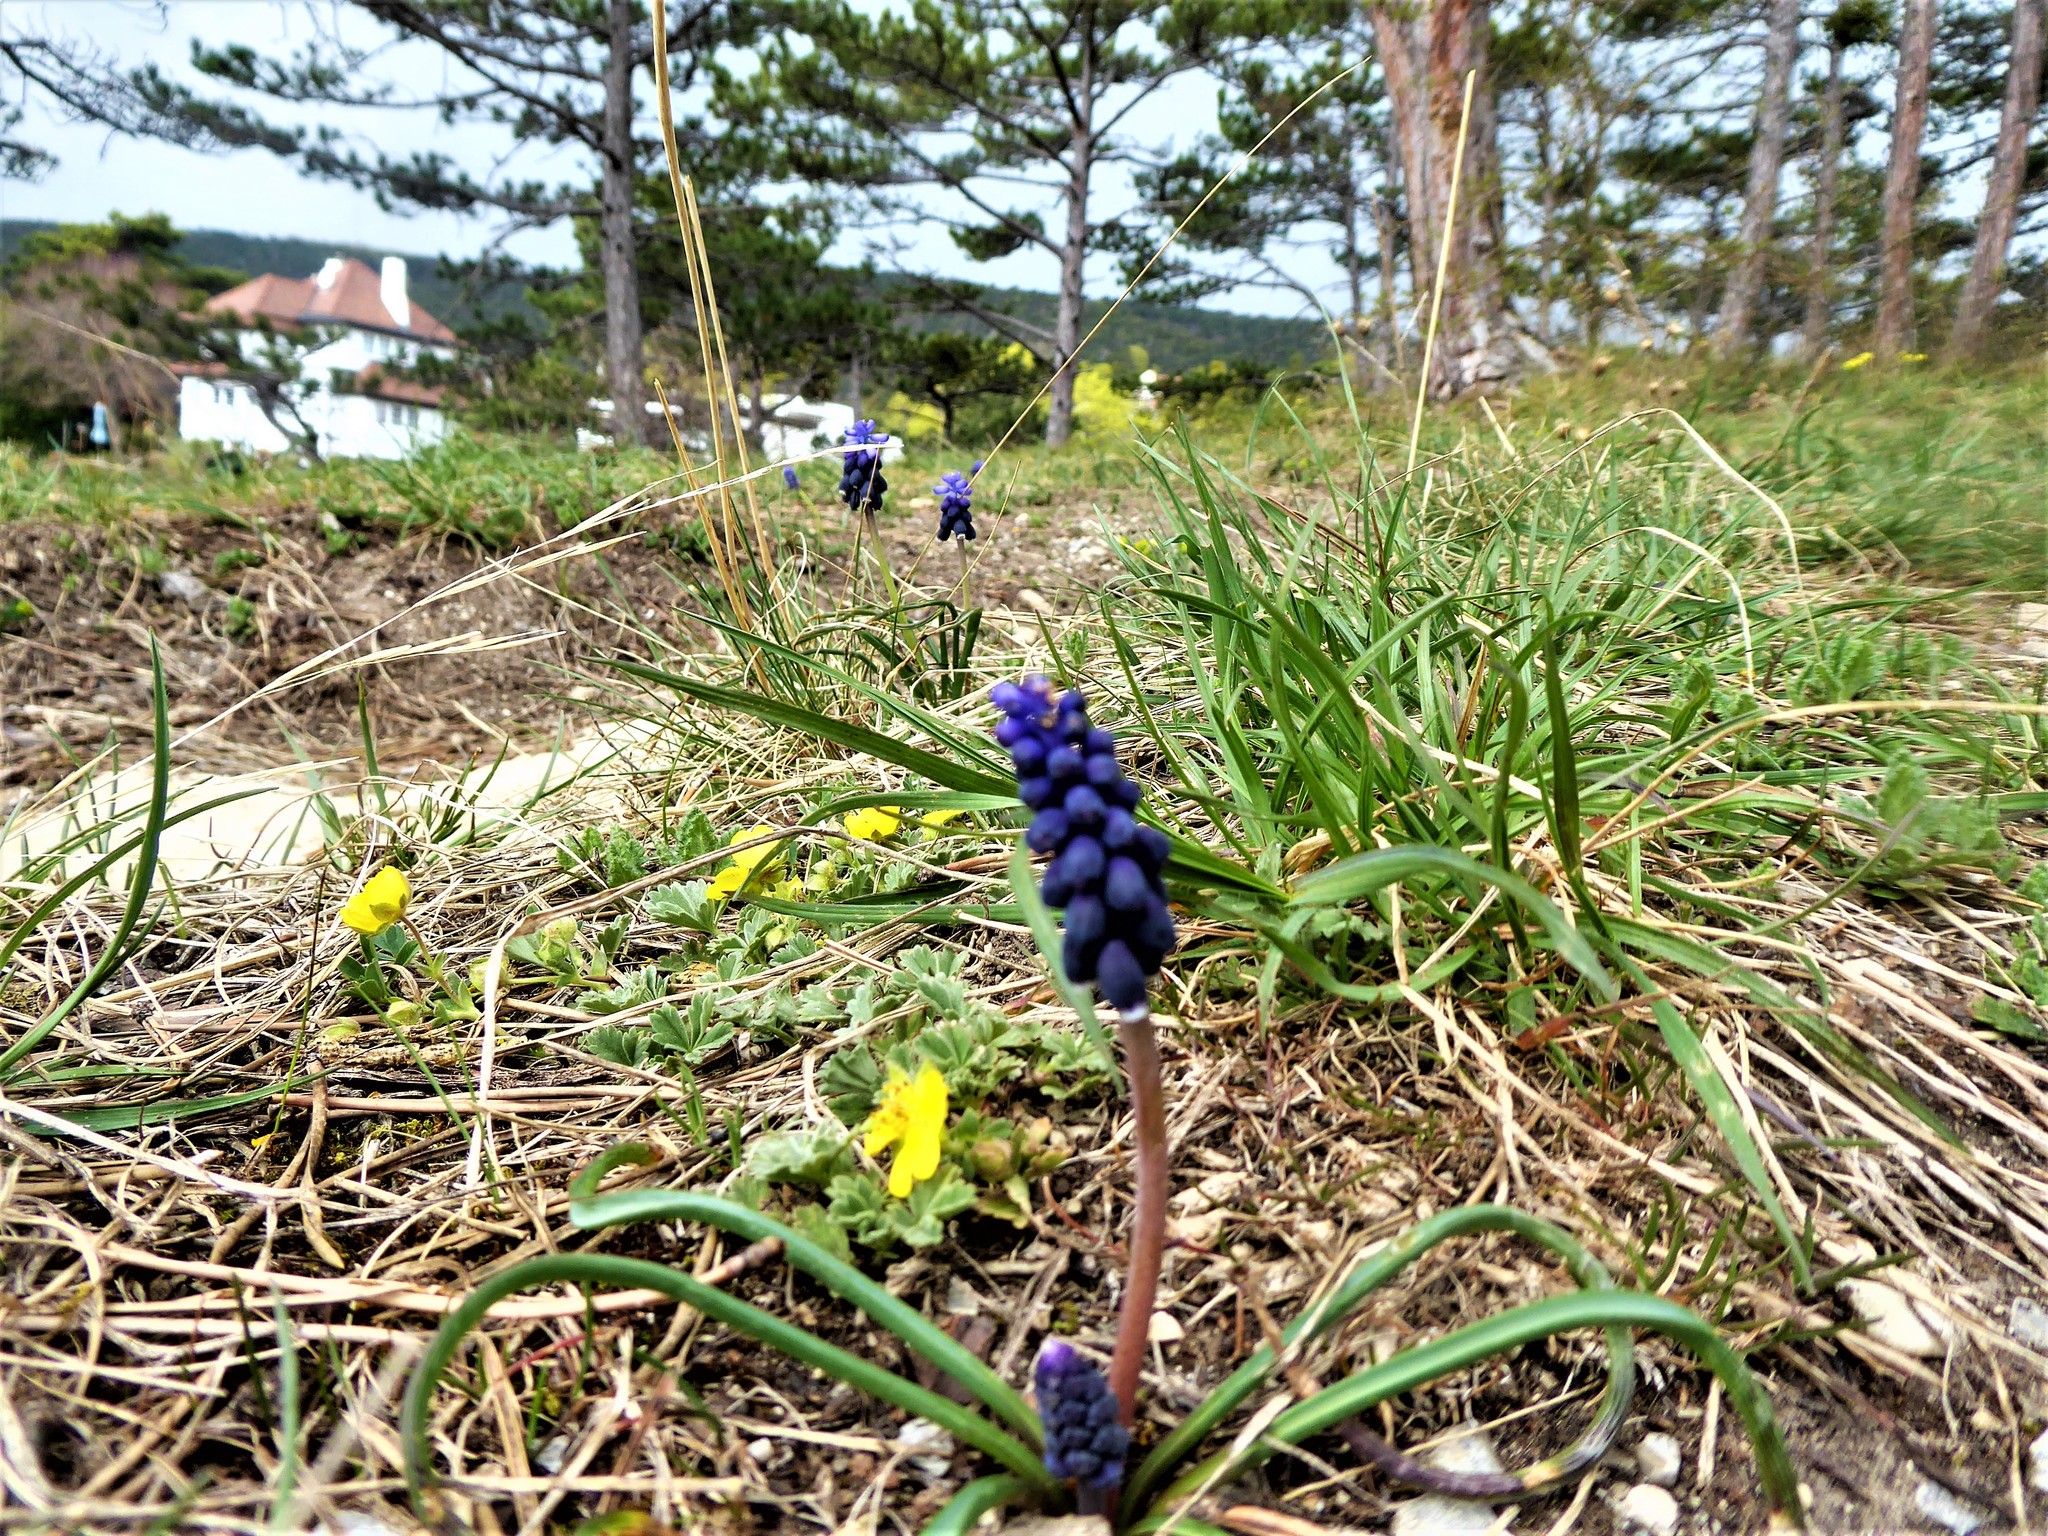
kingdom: Plantae
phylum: Tracheophyta
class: Liliopsida
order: Asparagales
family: Asparagaceae
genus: Muscari
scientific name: Muscari neglectum
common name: Grape-hyacinth
